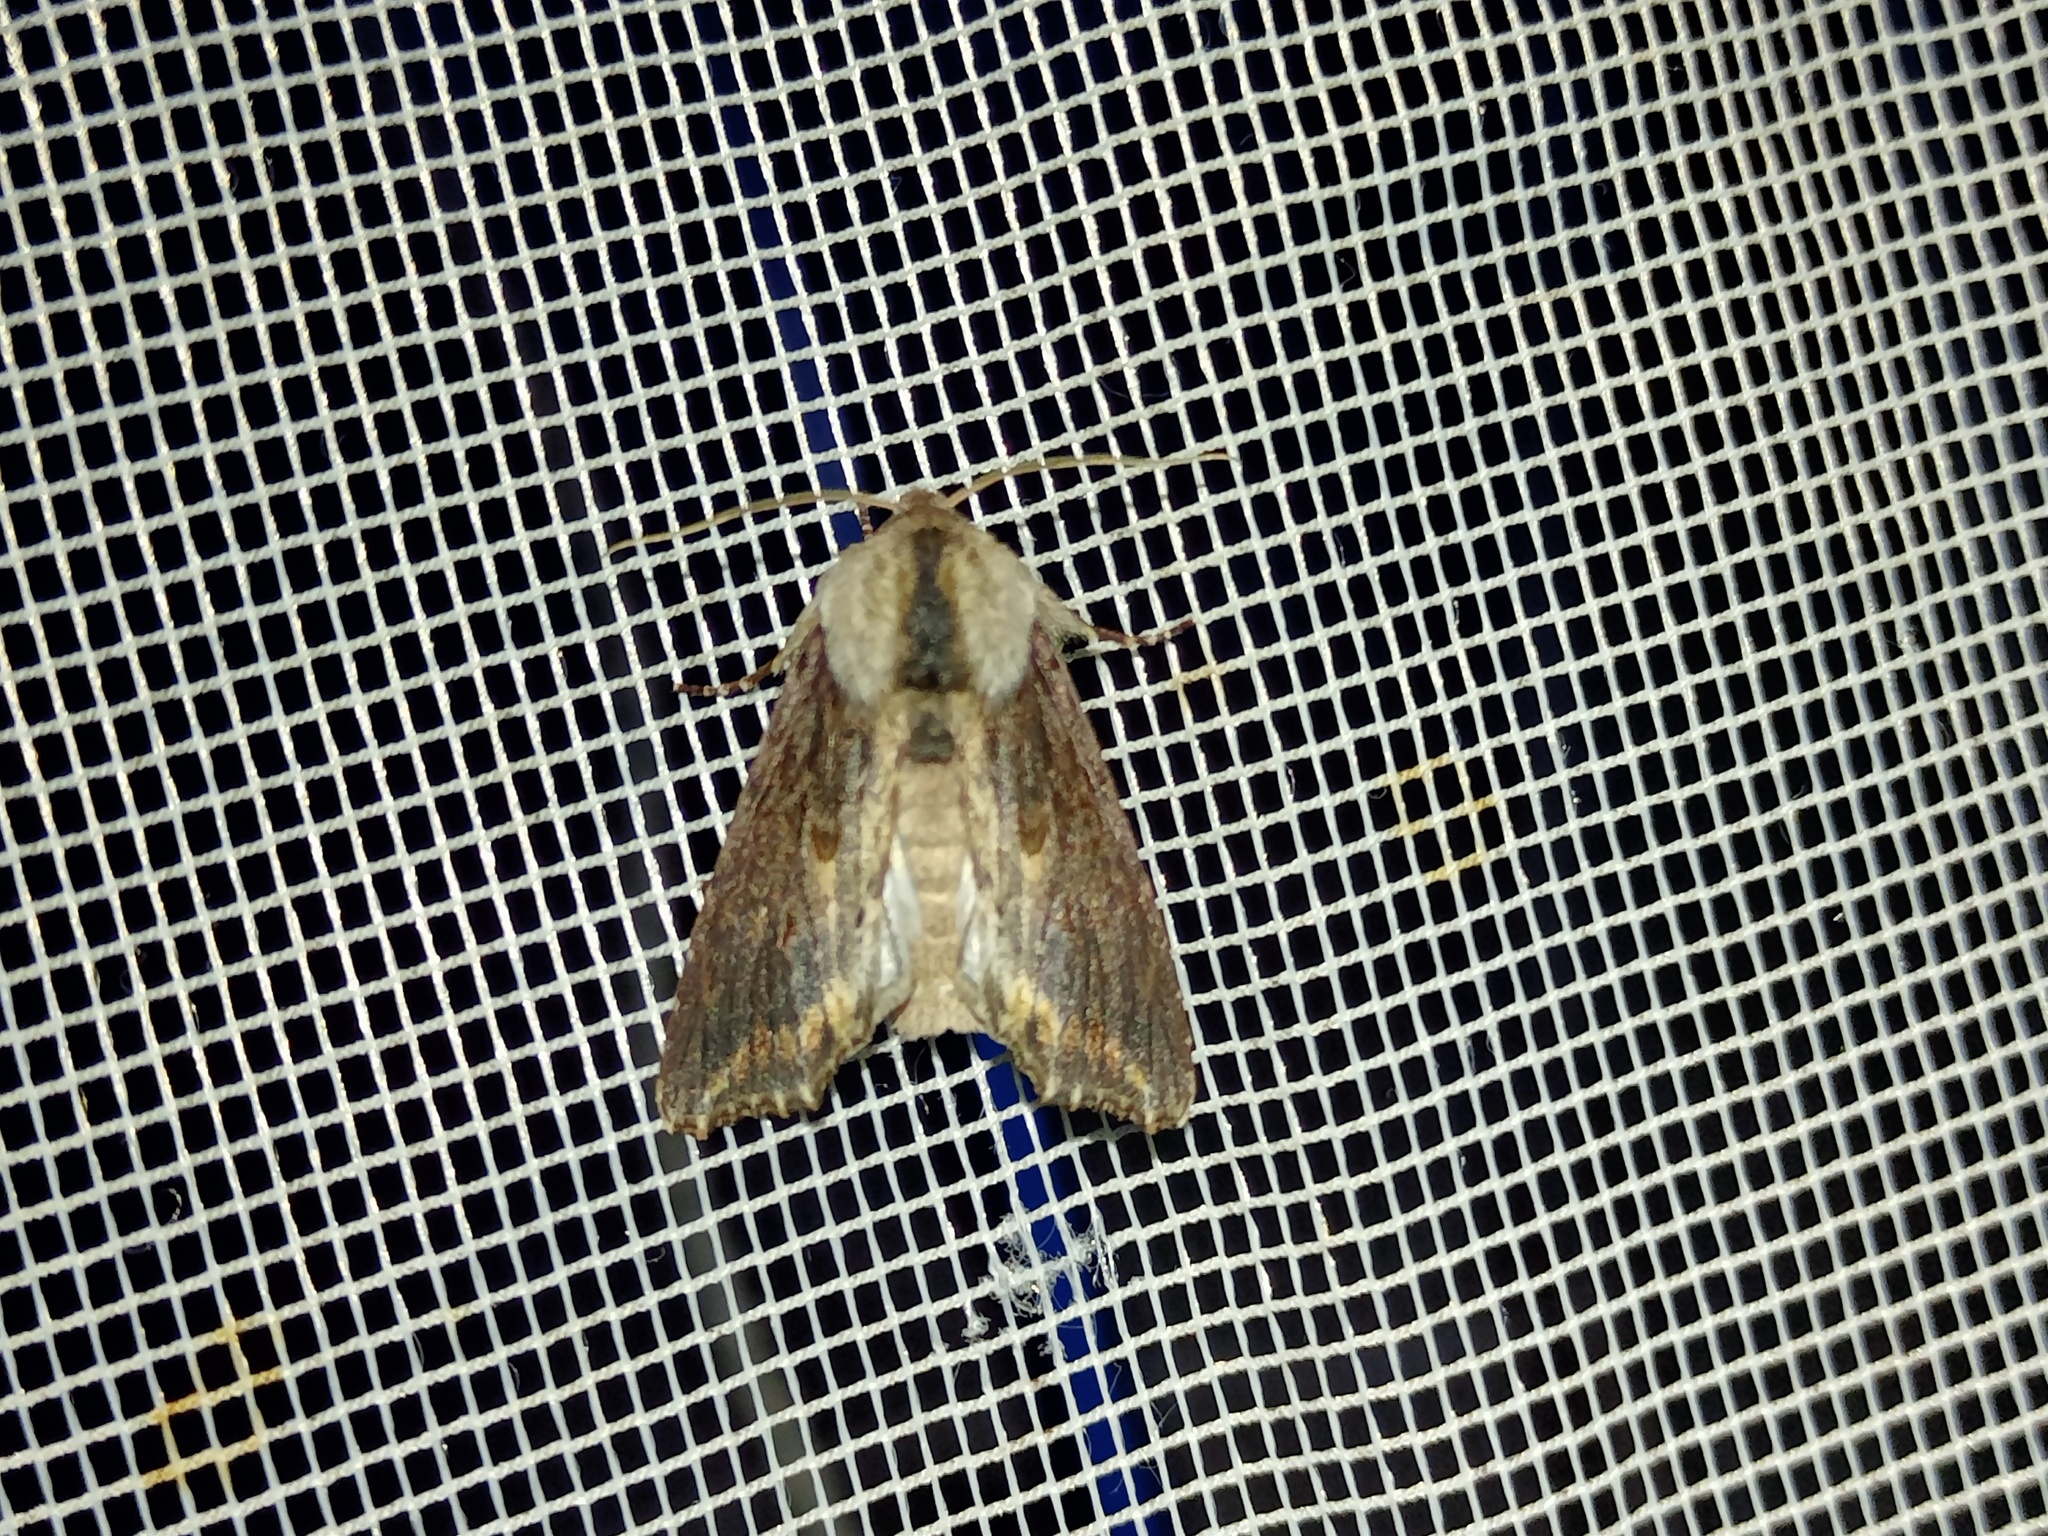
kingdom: Animalia
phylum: Arthropoda
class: Insecta
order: Lepidoptera
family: Noctuidae
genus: Egira
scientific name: Egira conspicillaris
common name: Silver cloud
